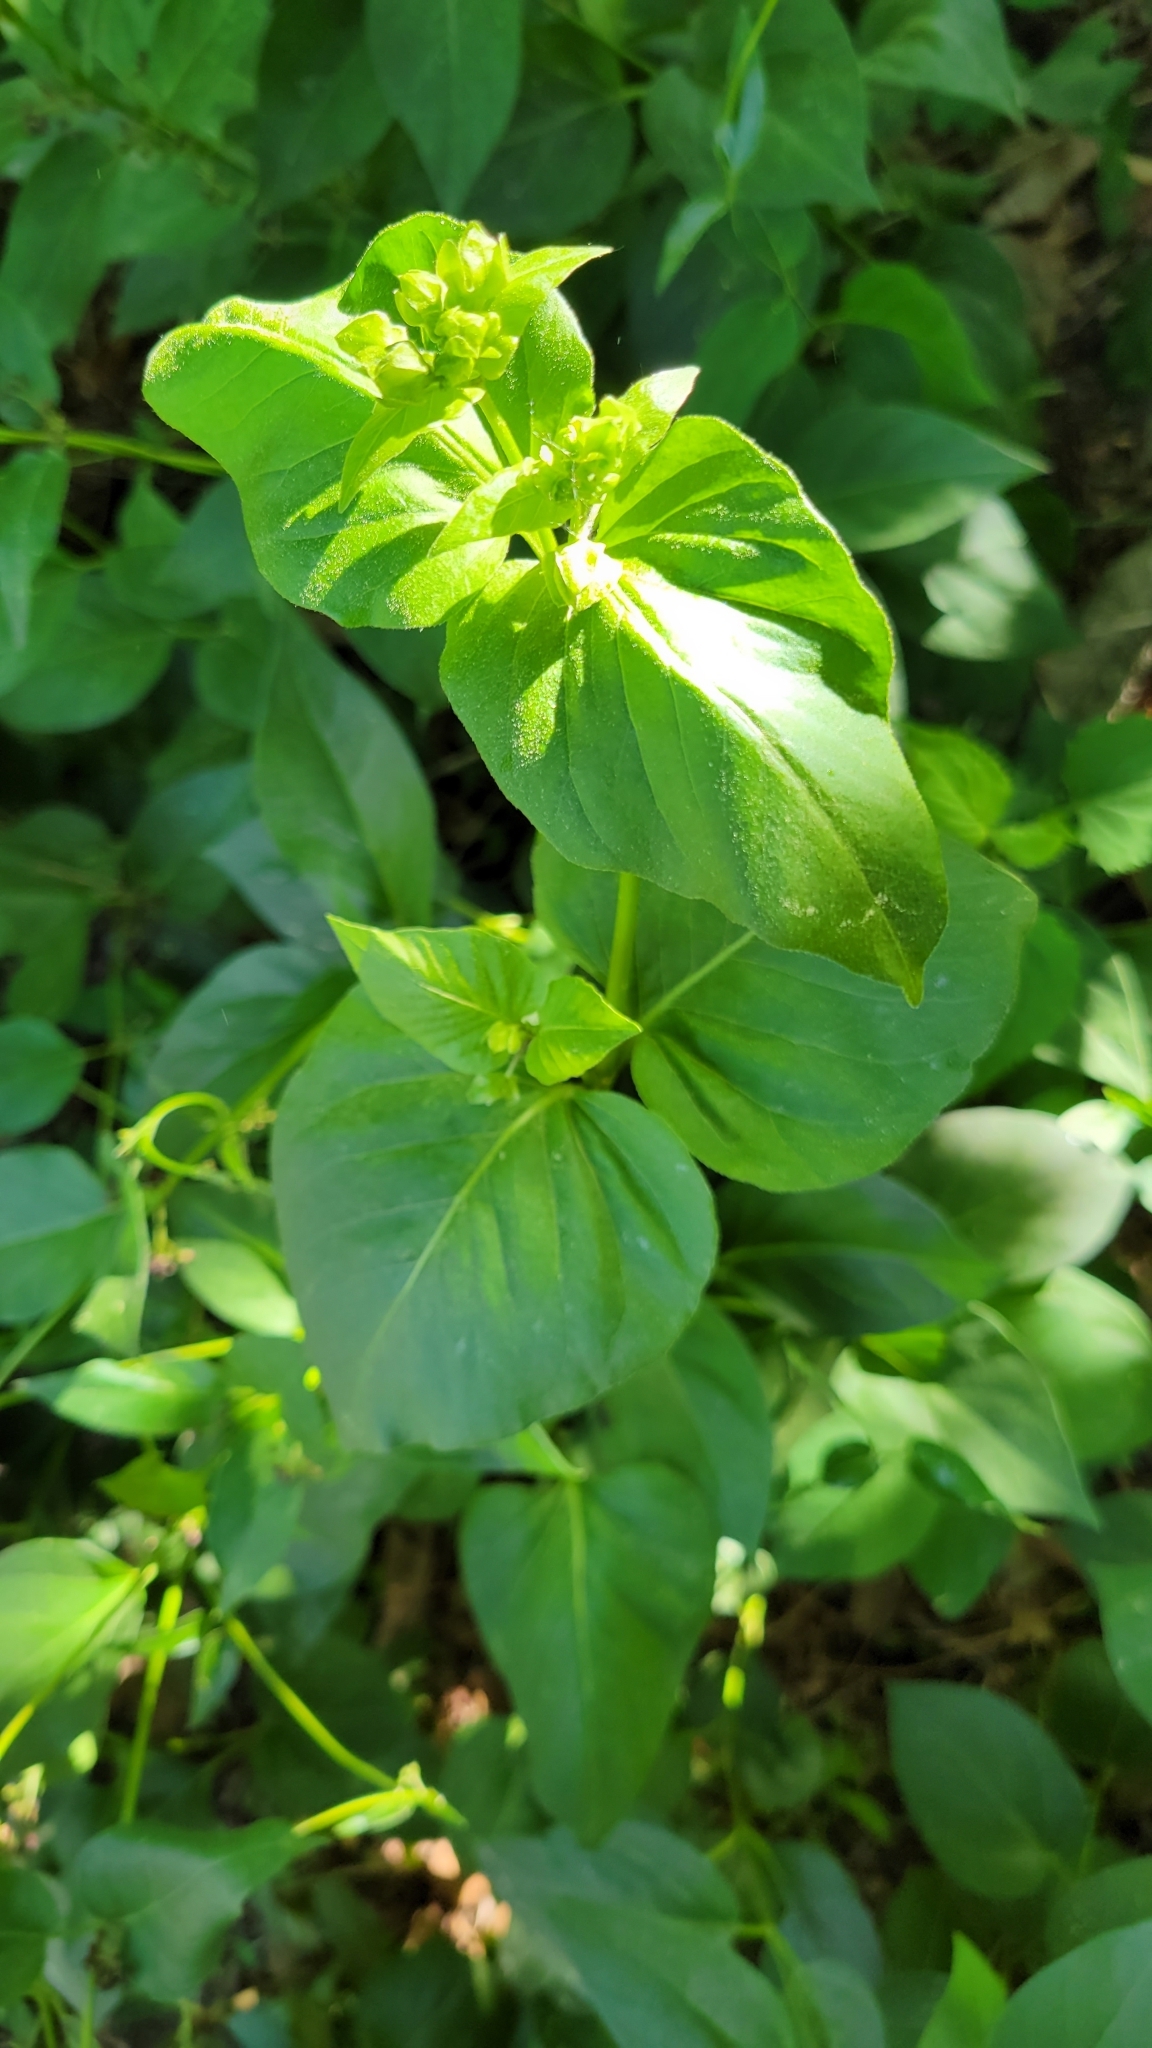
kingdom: Plantae
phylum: Tracheophyta
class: Magnoliopsida
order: Caryophyllales
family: Nyctaginaceae
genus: Mirabilis
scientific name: Mirabilis nyctaginea
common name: Umbrella wort
